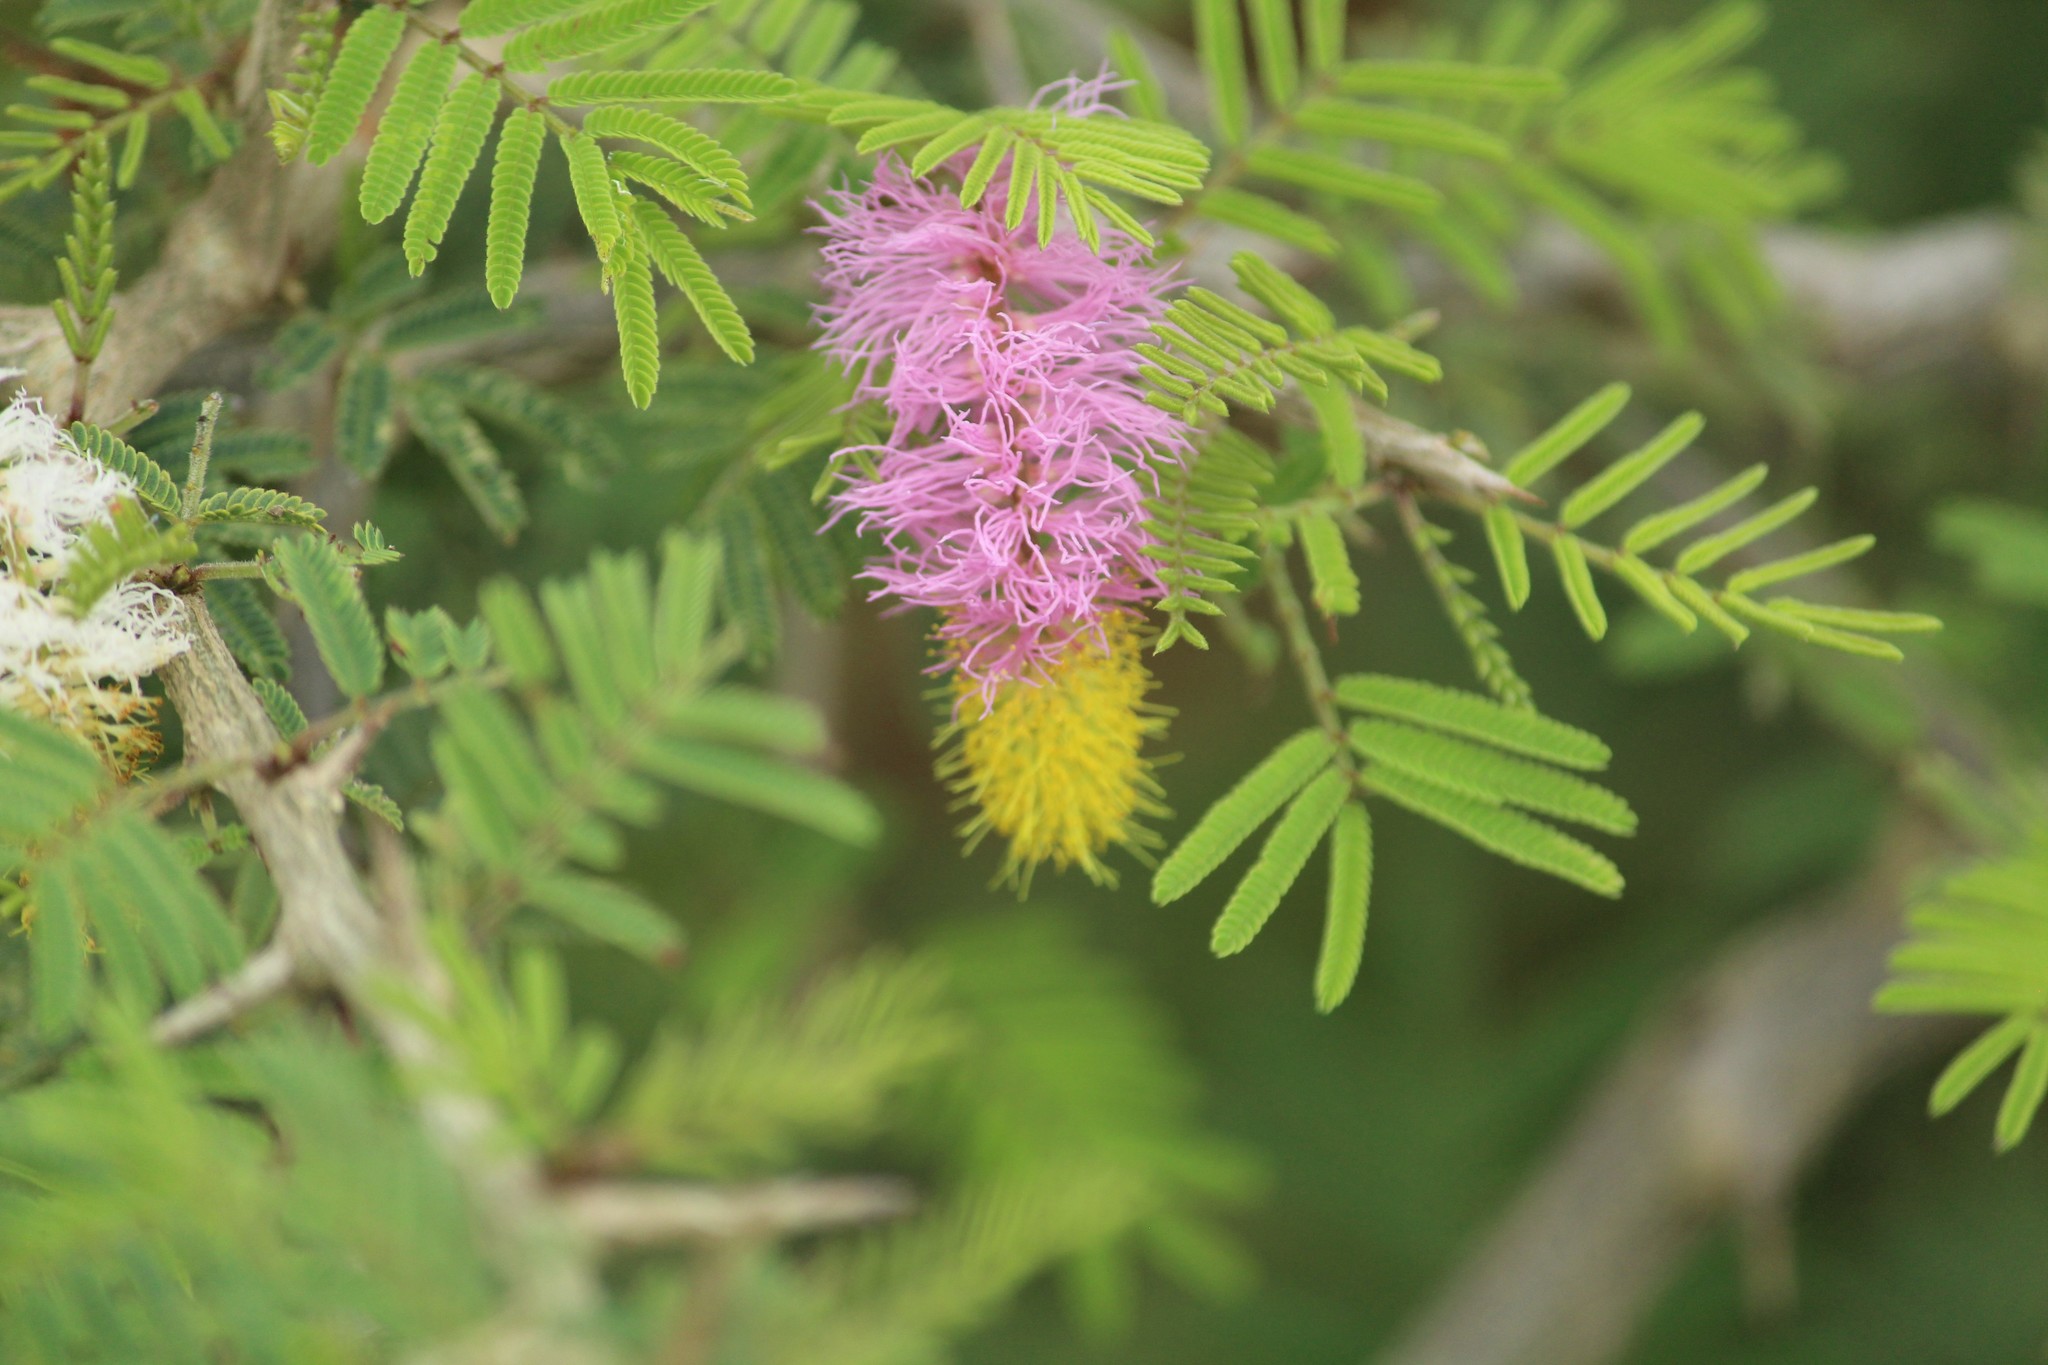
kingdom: Plantae
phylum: Tracheophyta
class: Magnoliopsida
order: Fabales
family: Fabaceae
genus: Dichrostachys
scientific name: Dichrostachys cinerea
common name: Sicklebush
